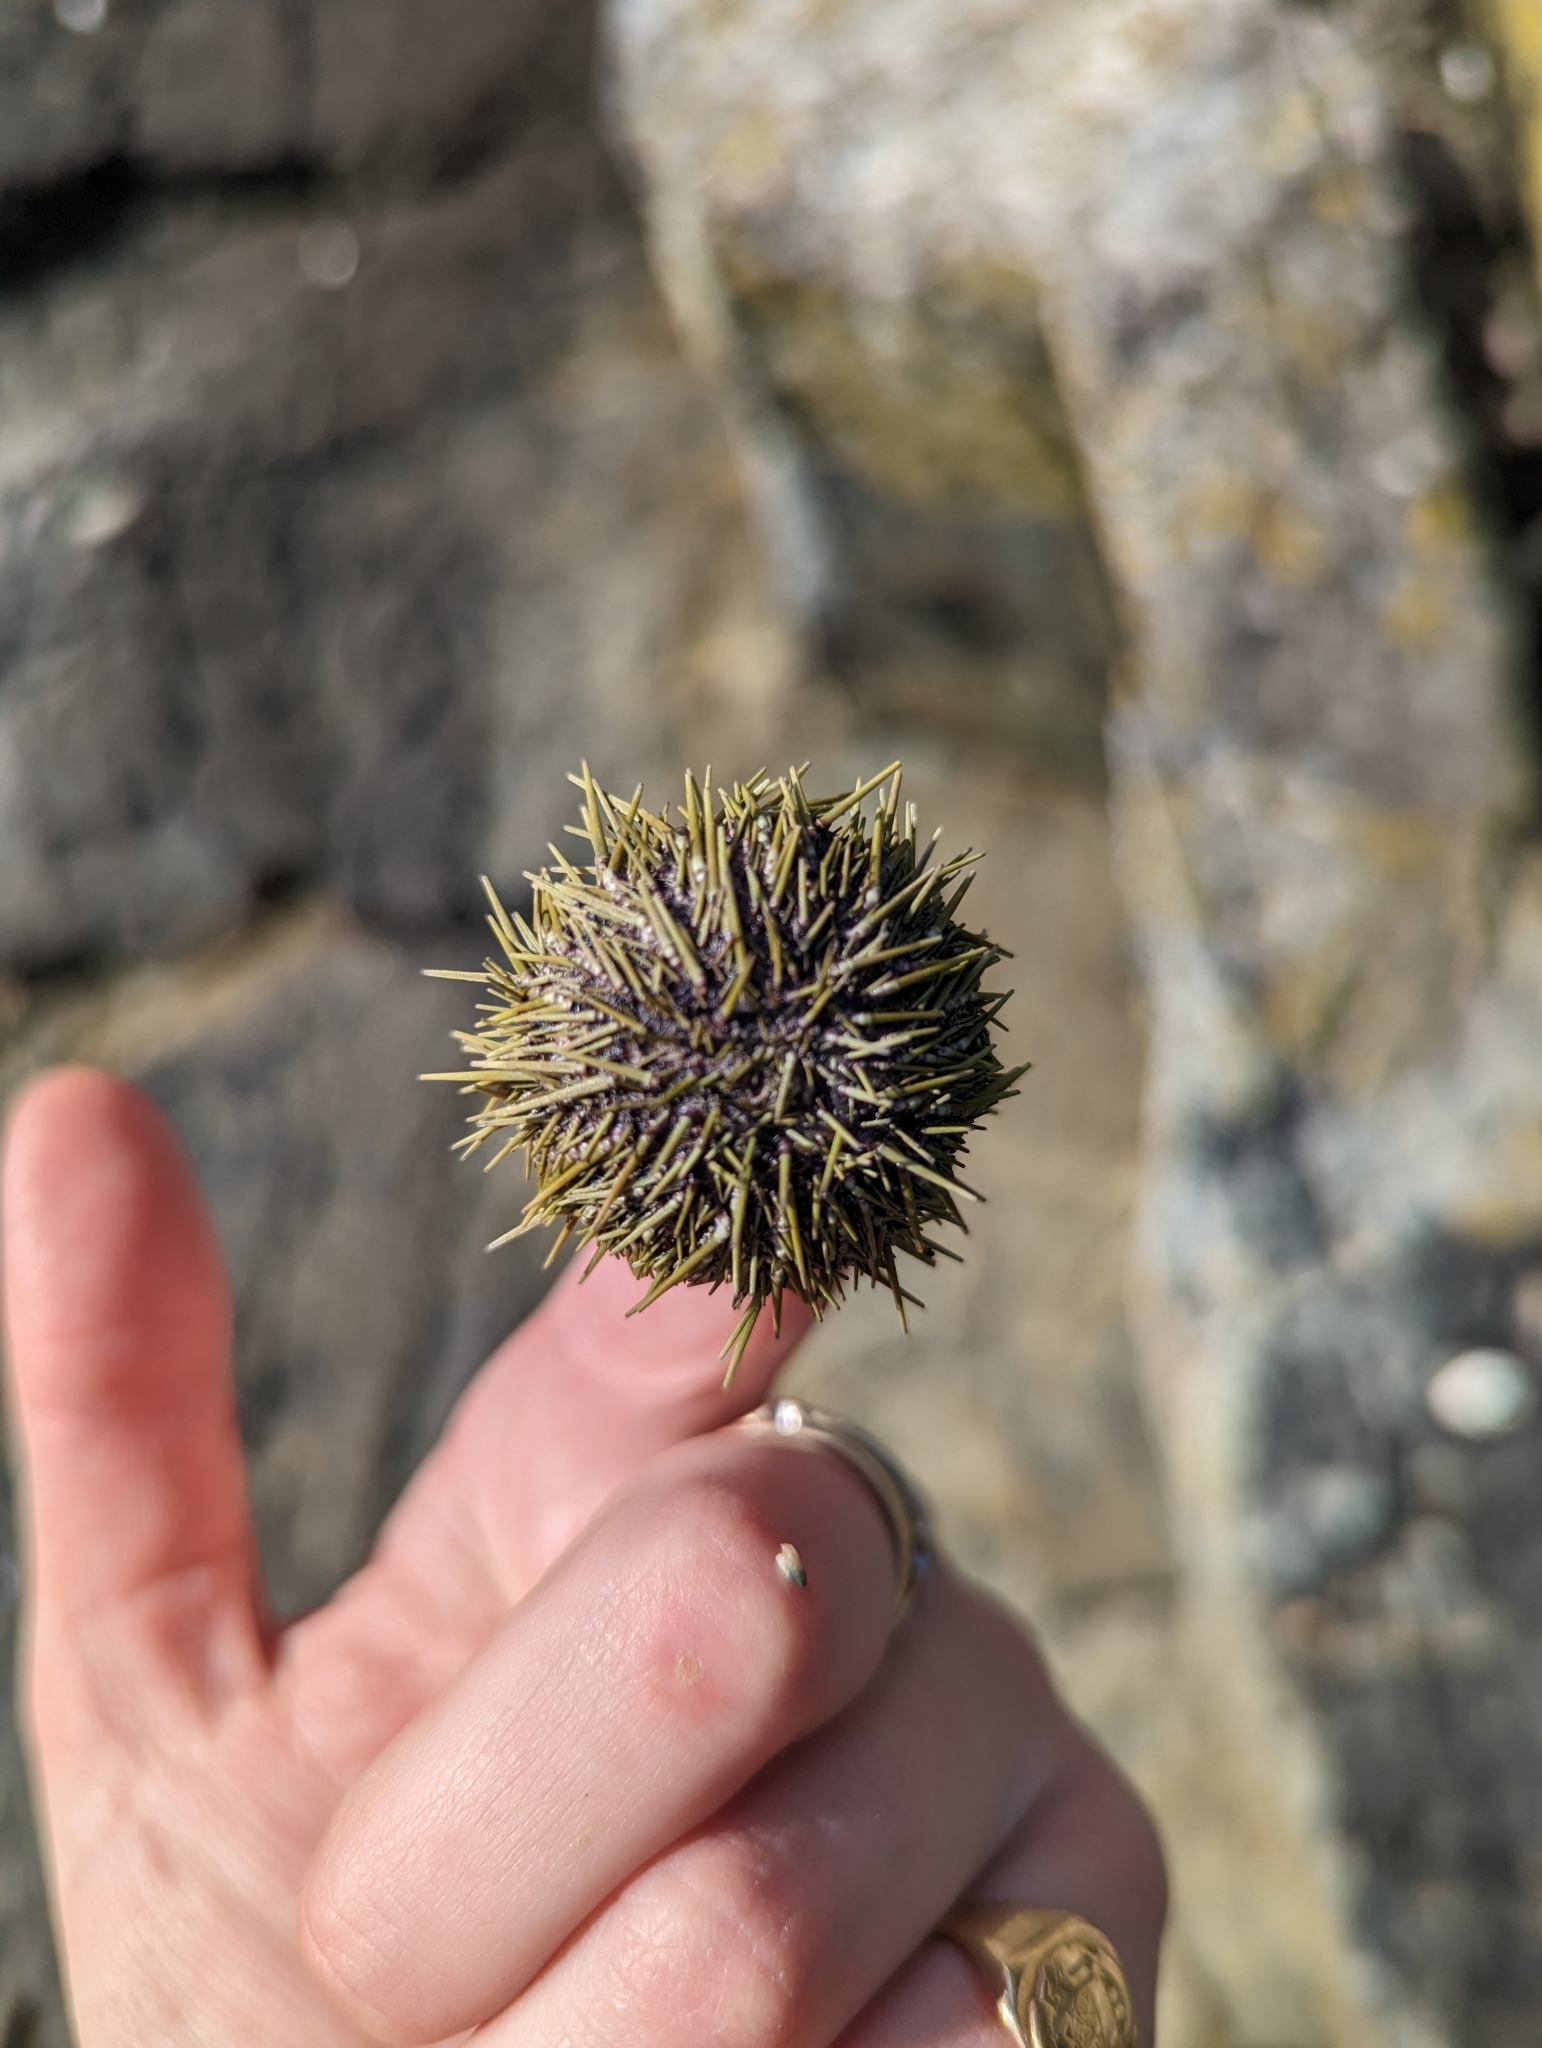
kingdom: Animalia
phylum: Echinodermata
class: Echinoidea
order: Camarodonta
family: Strongylocentrotidae
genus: Strongylocentrotus
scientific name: Strongylocentrotus droebachiensis
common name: Northern sea urchin
